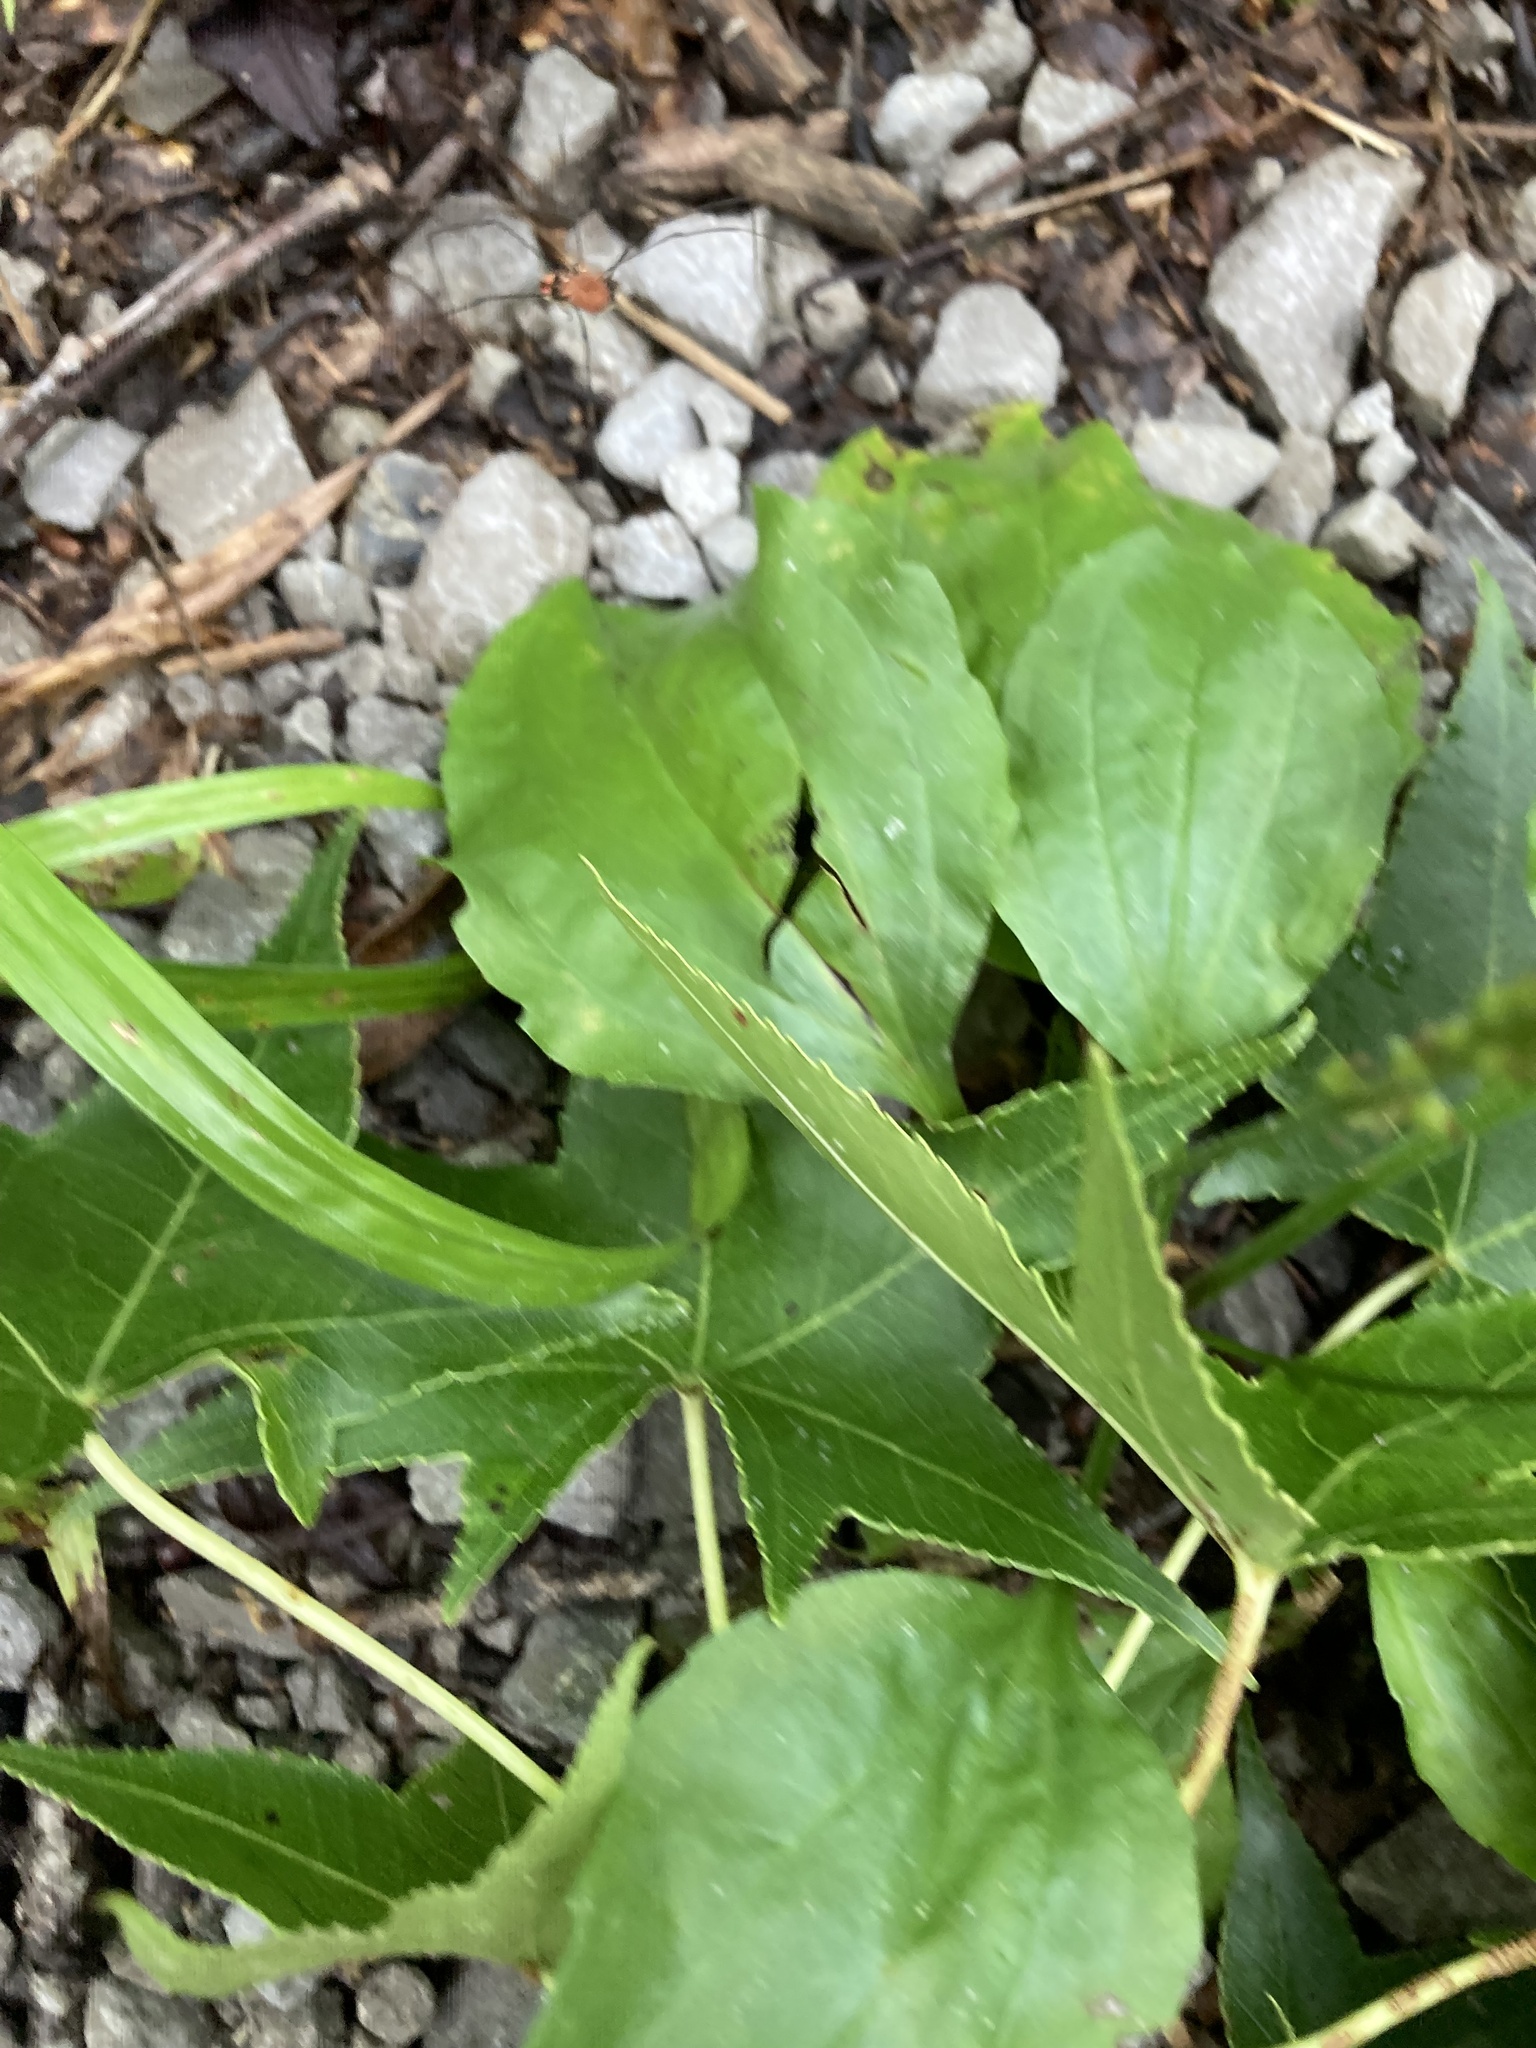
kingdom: Plantae
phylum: Tracheophyta
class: Magnoliopsida
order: Lamiales
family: Plantaginaceae
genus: Plantago
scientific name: Plantago rugelii
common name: American plantain
